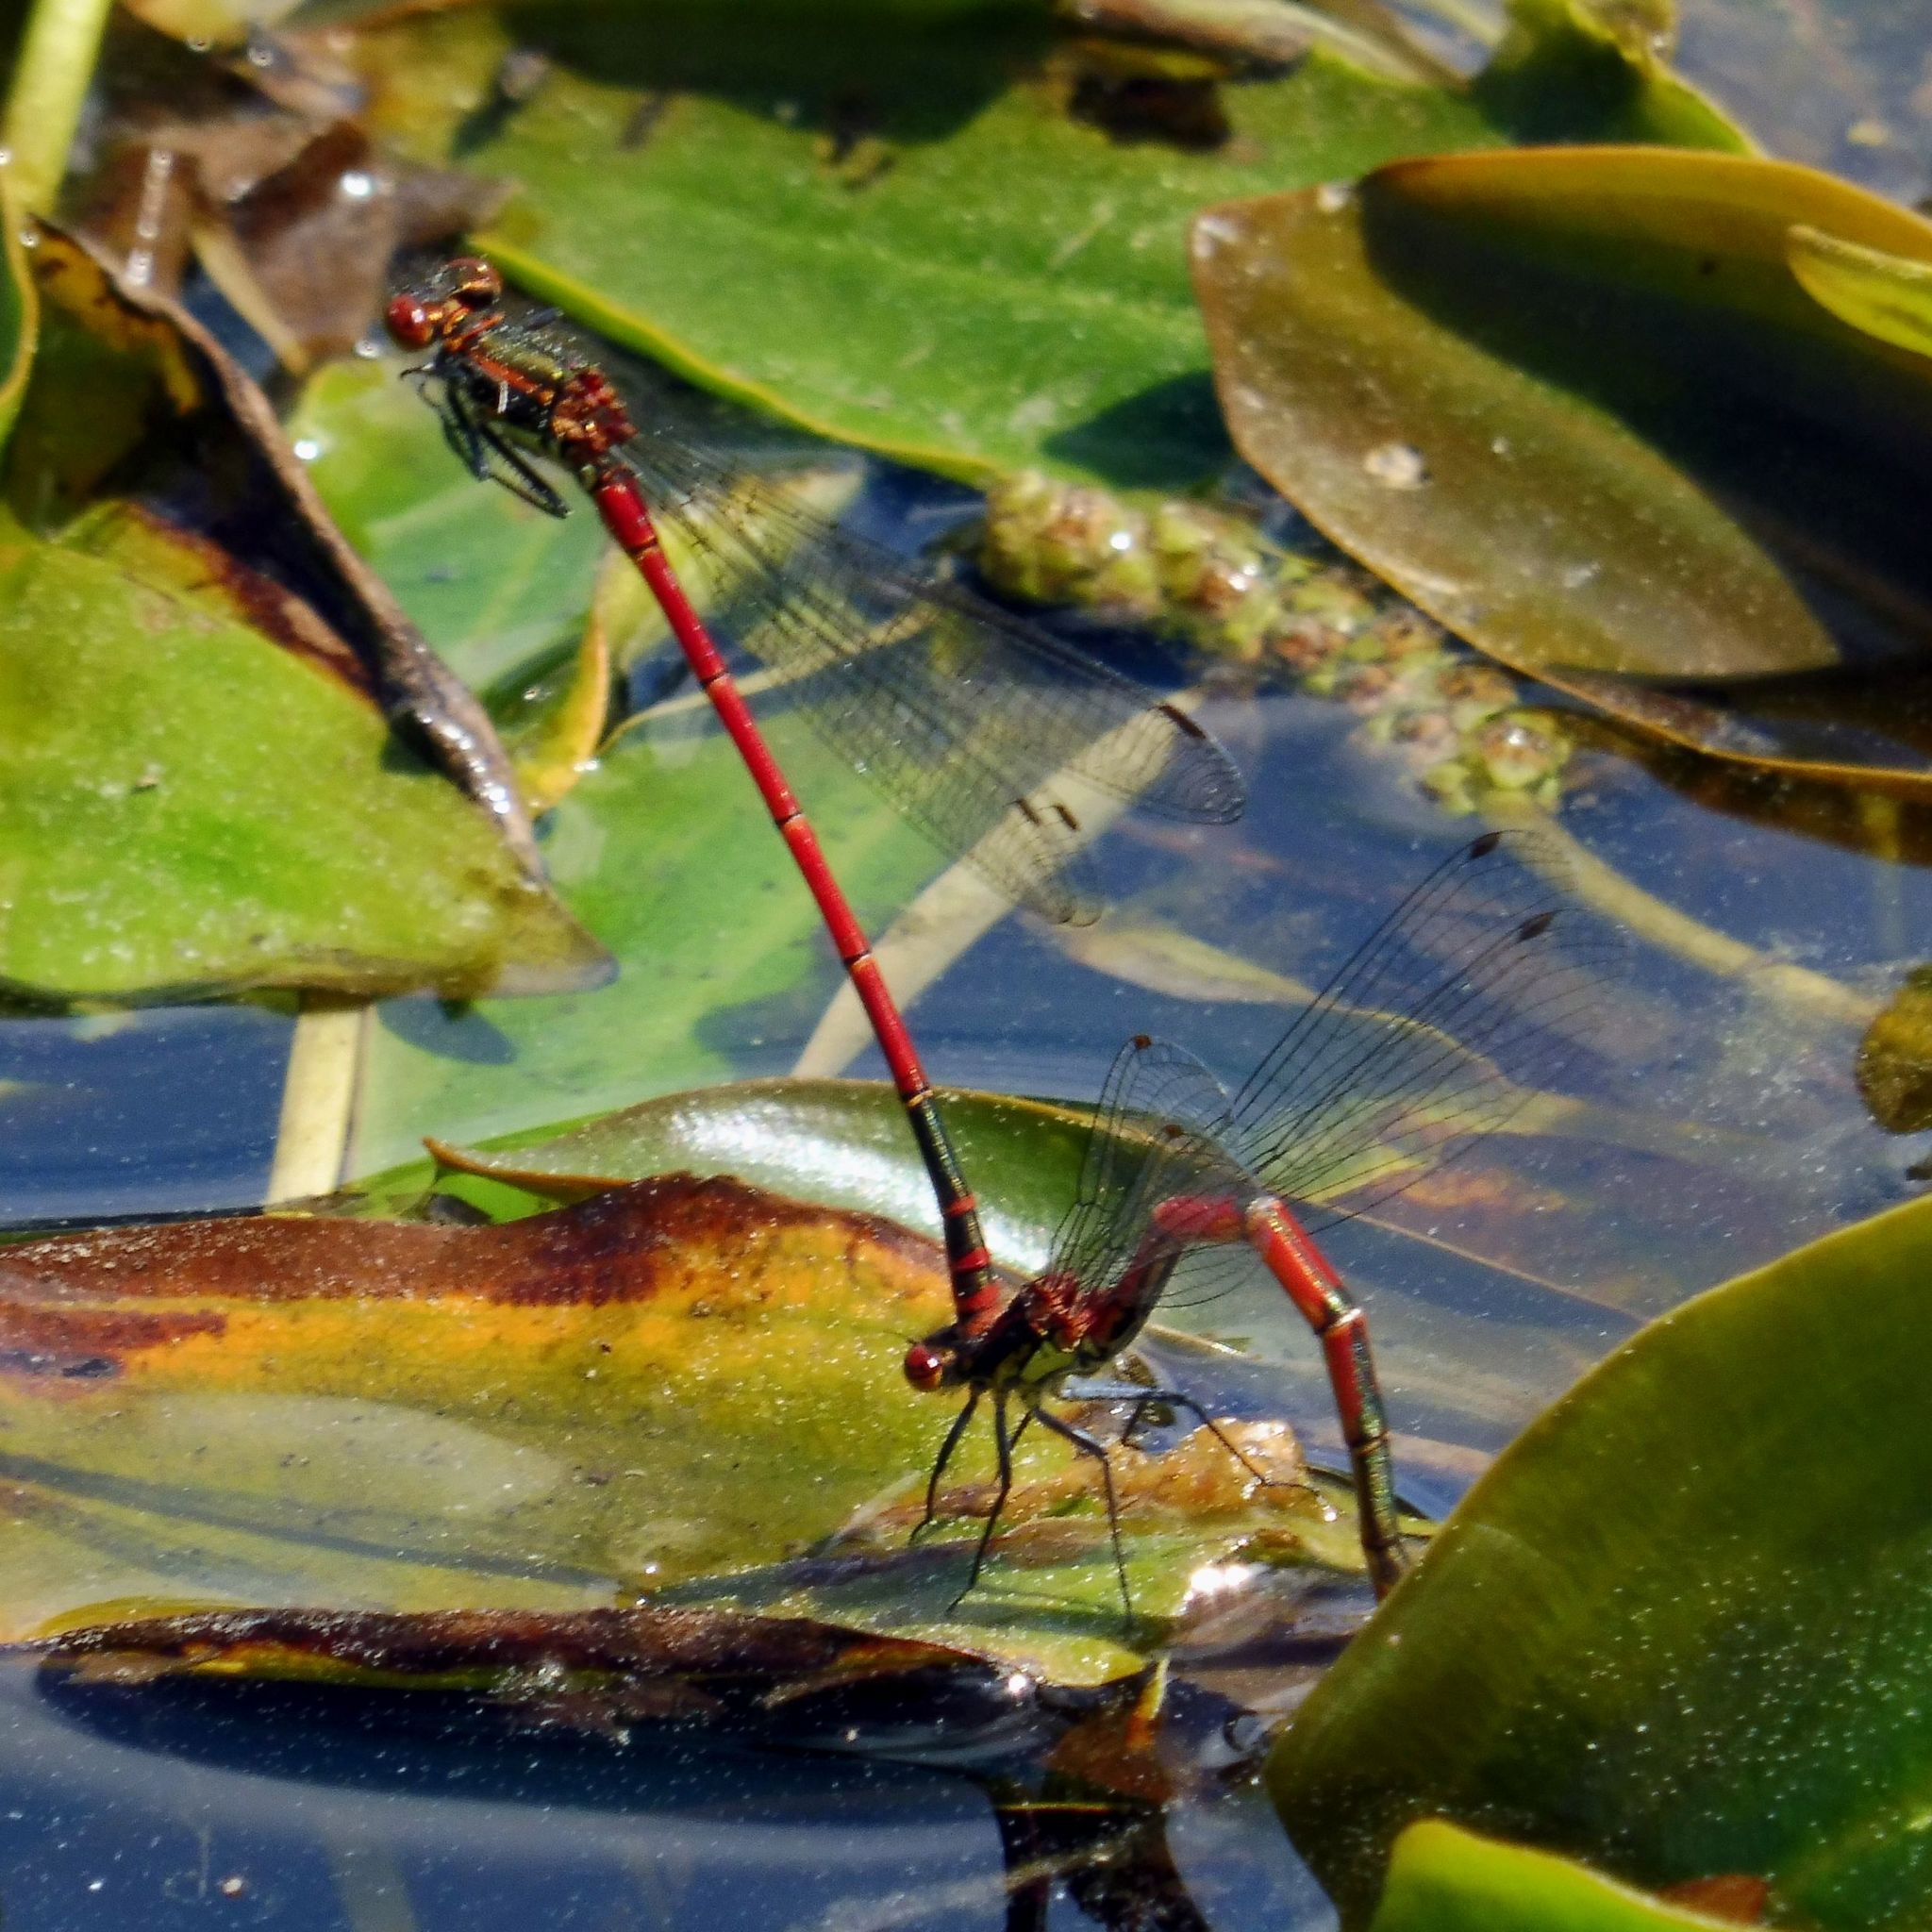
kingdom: Animalia
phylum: Arthropoda
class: Insecta
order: Odonata
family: Coenagrionidae
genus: Pyrrhosoma
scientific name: Pyrrhosoma nymphula
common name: Large red damsel
